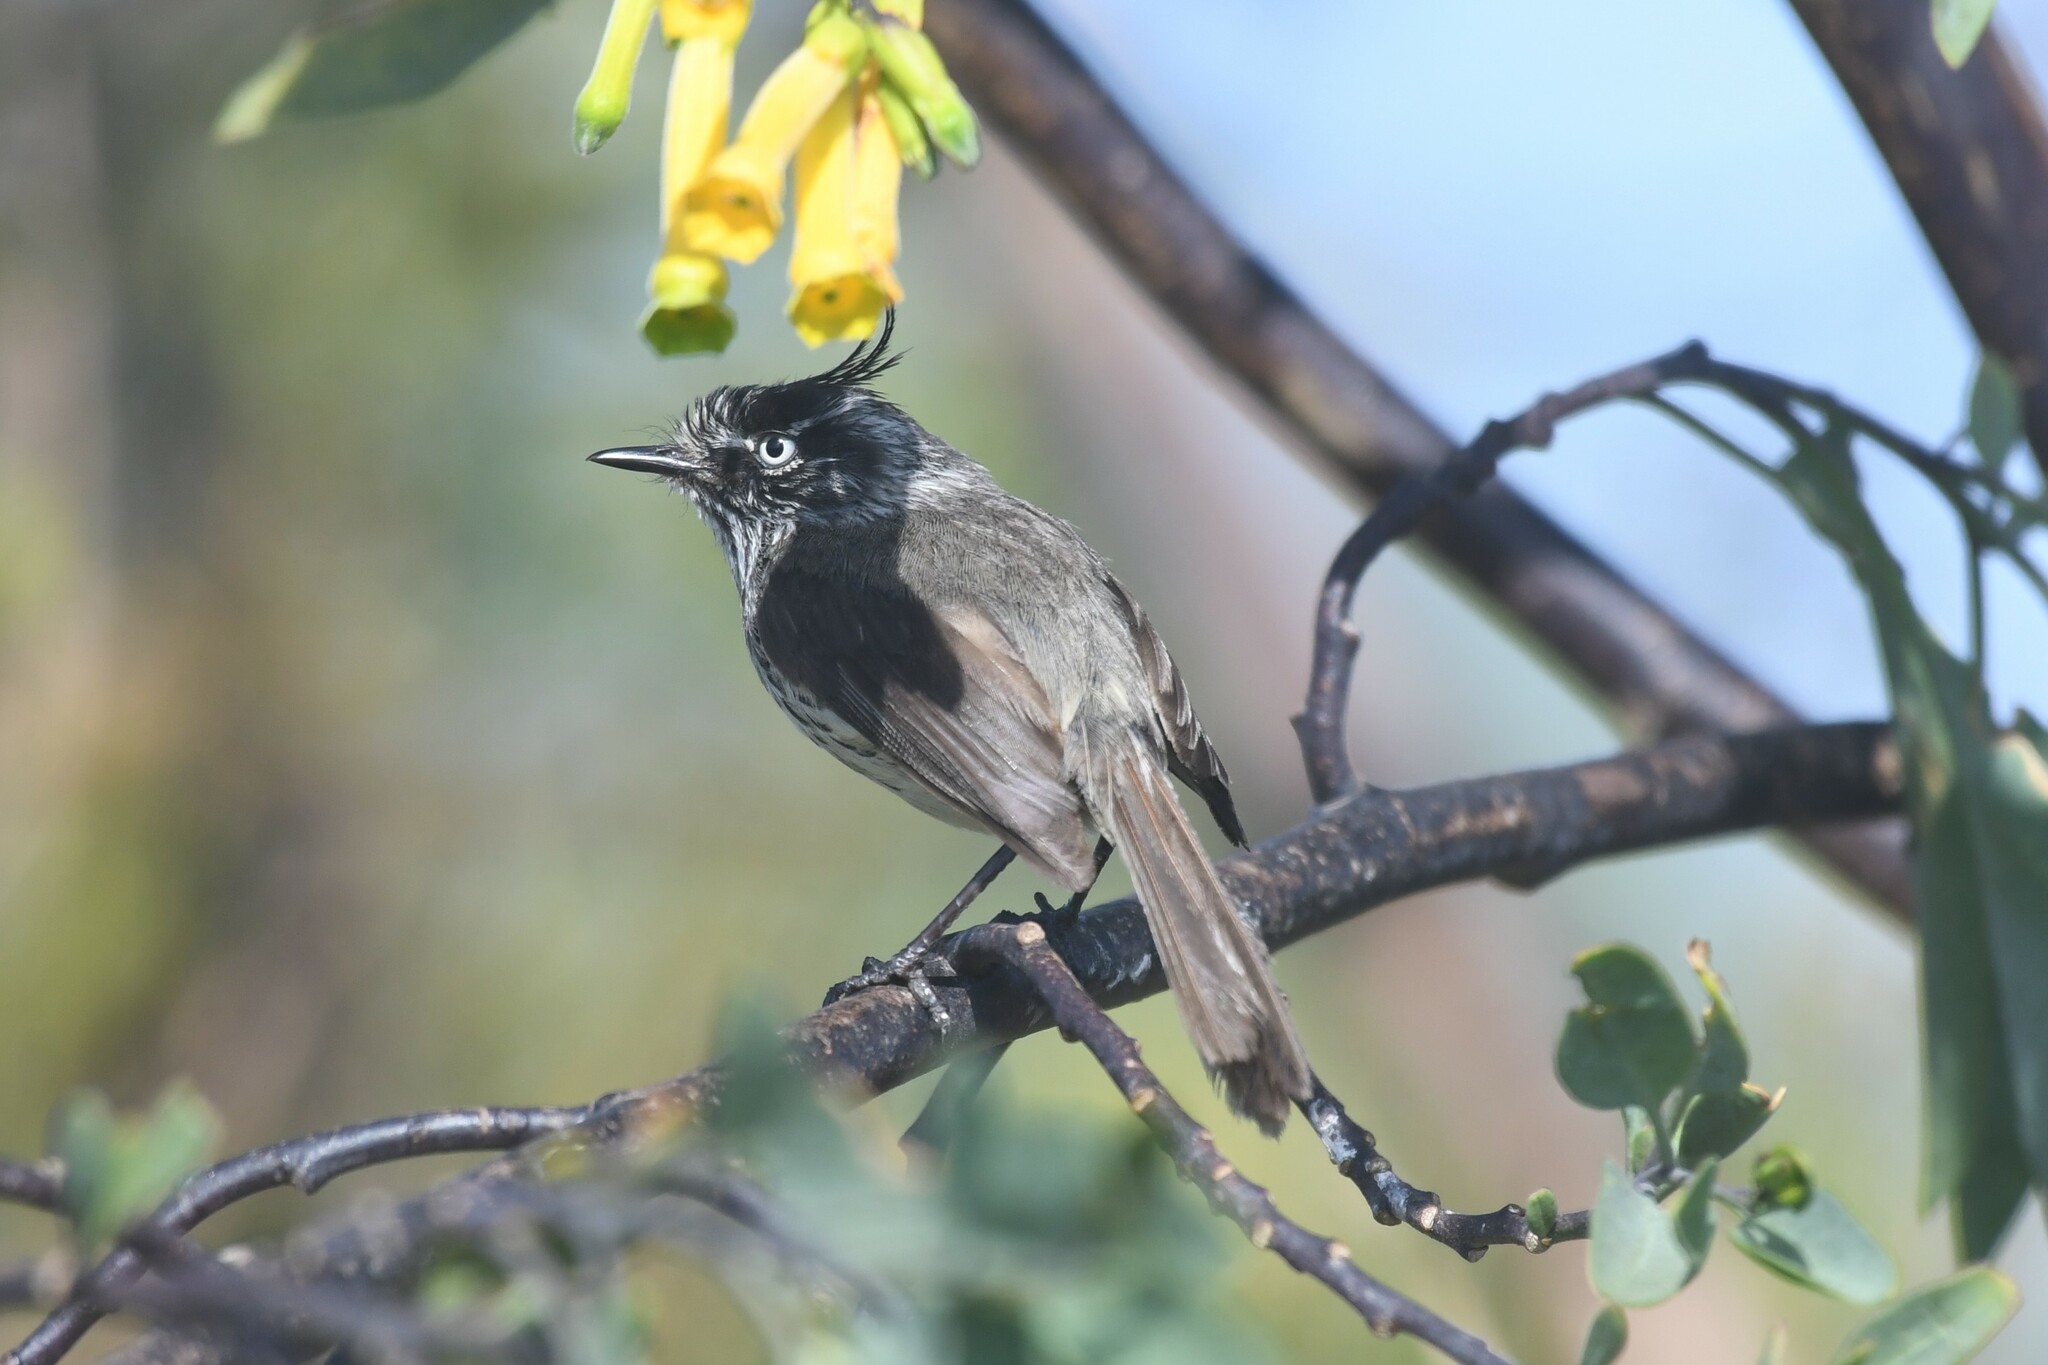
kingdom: Animalia
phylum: Chordata
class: Aves
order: Passeriformes
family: Tyrannidae
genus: Anairetes
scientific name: Anairetes parulus
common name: Tufted tit-tyrant
